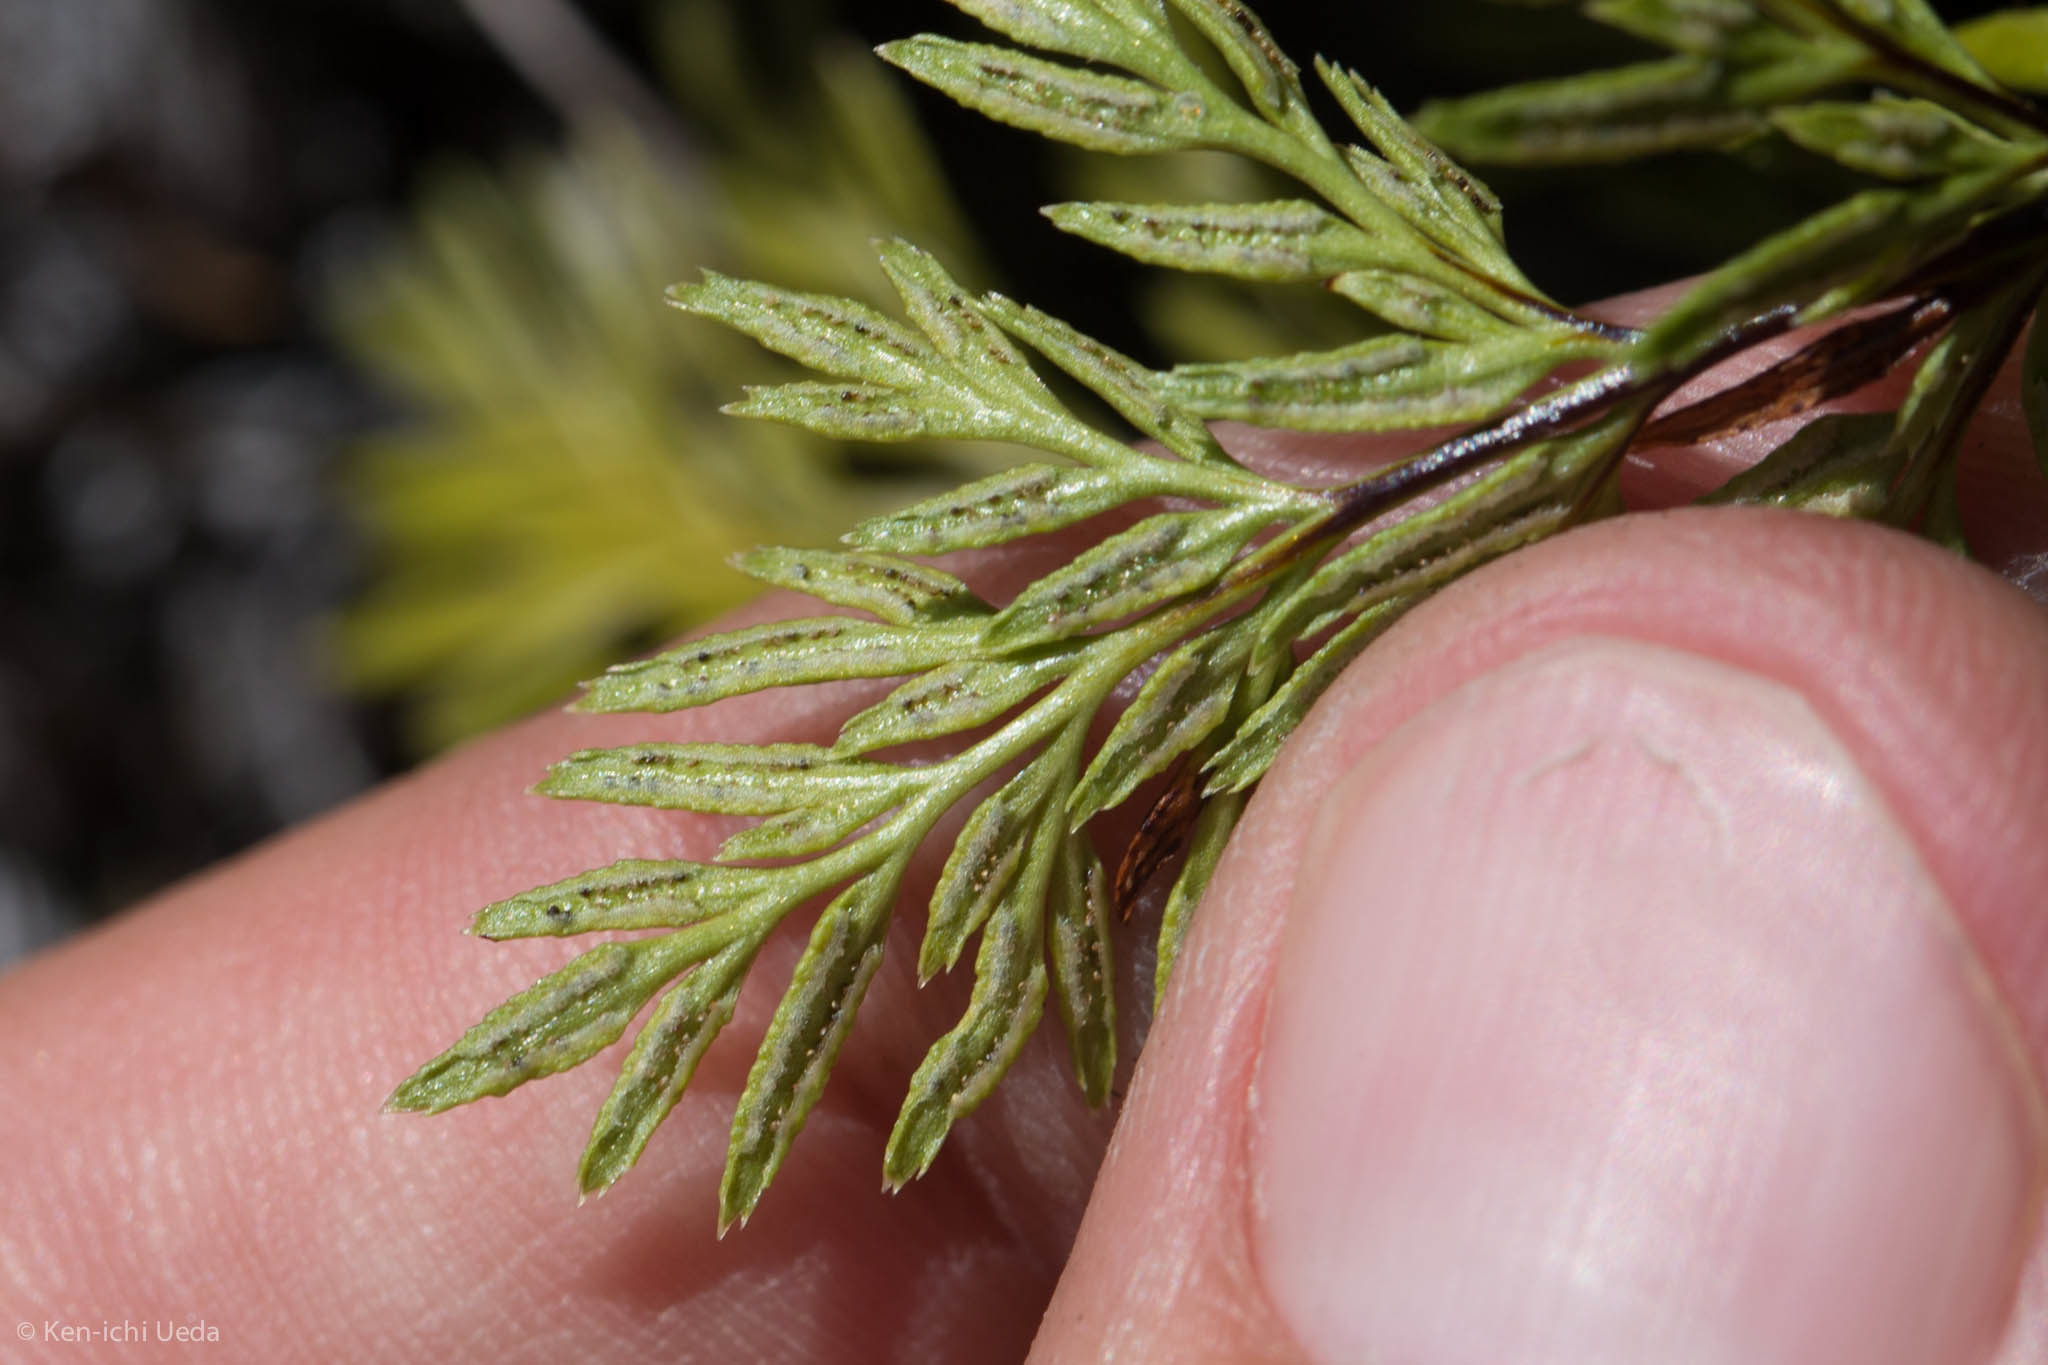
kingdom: Plantae
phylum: Tracheophyta
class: Polypodiopsida
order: Polypodiales
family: Pteridaceae
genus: Aspidotis
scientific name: Aspidotis densa
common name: Indian's dream
